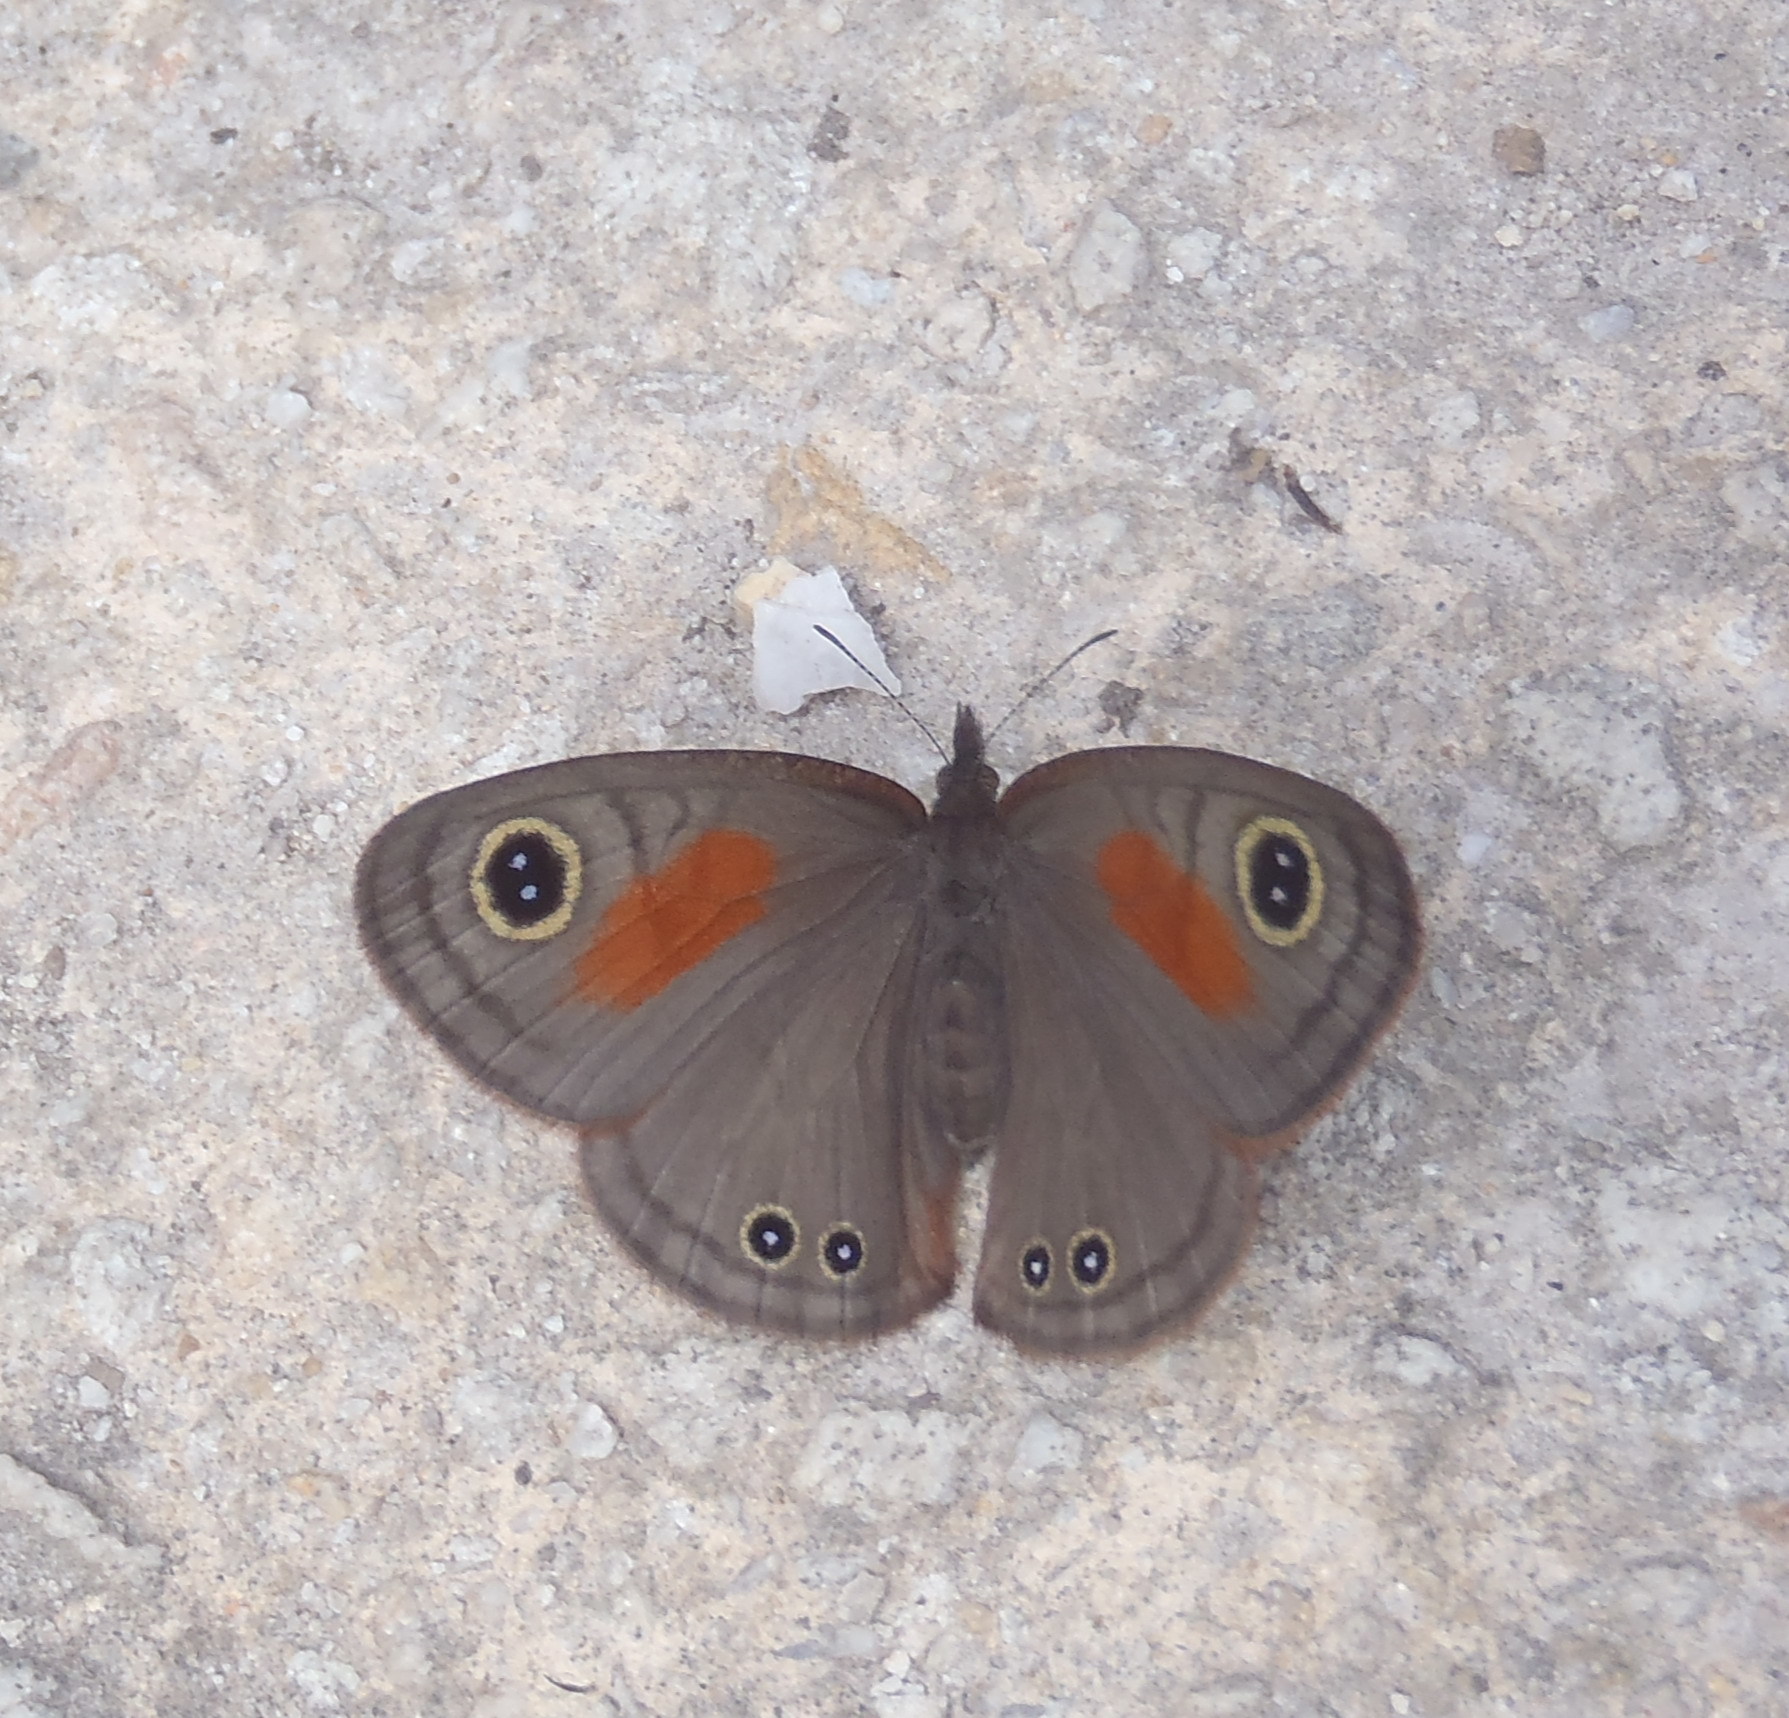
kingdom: Animalia
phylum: Arthropoda
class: Insecta
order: Lepidoptera
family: Nymphalidae
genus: Cassionympha
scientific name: Cassionympha cassius
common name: Rainforest brown
